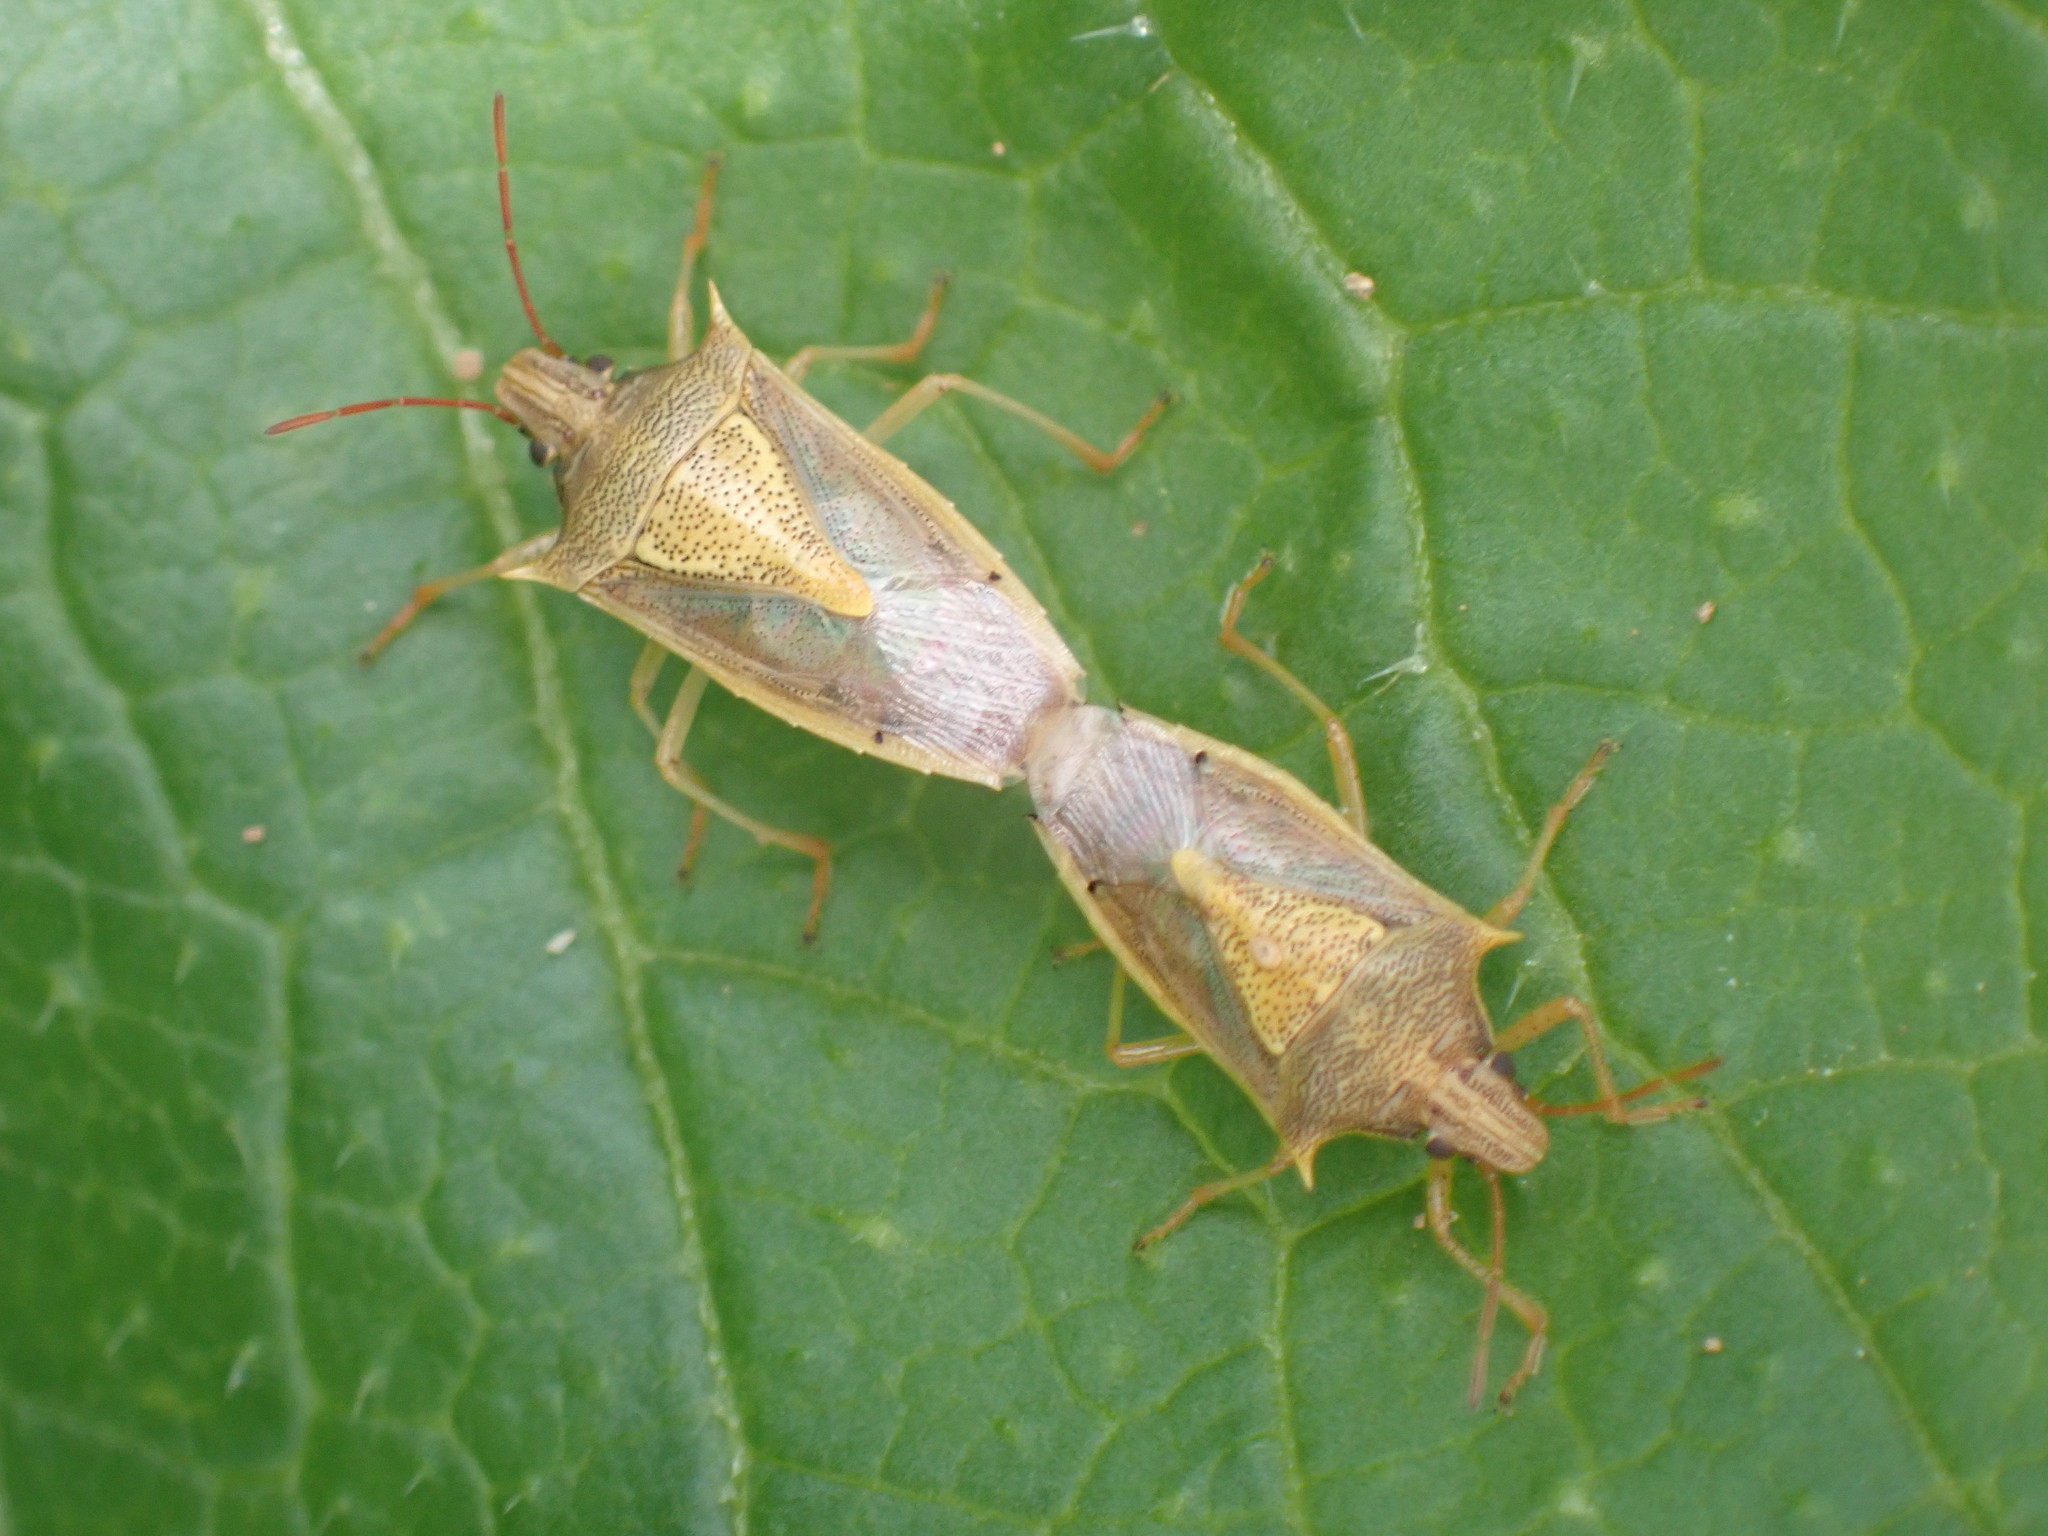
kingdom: Animalia
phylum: Arthropoda
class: Insecta
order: Hemiptera
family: Pentatomidae
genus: Oebalus
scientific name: Oebalus pugnax
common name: Rice stink bug
